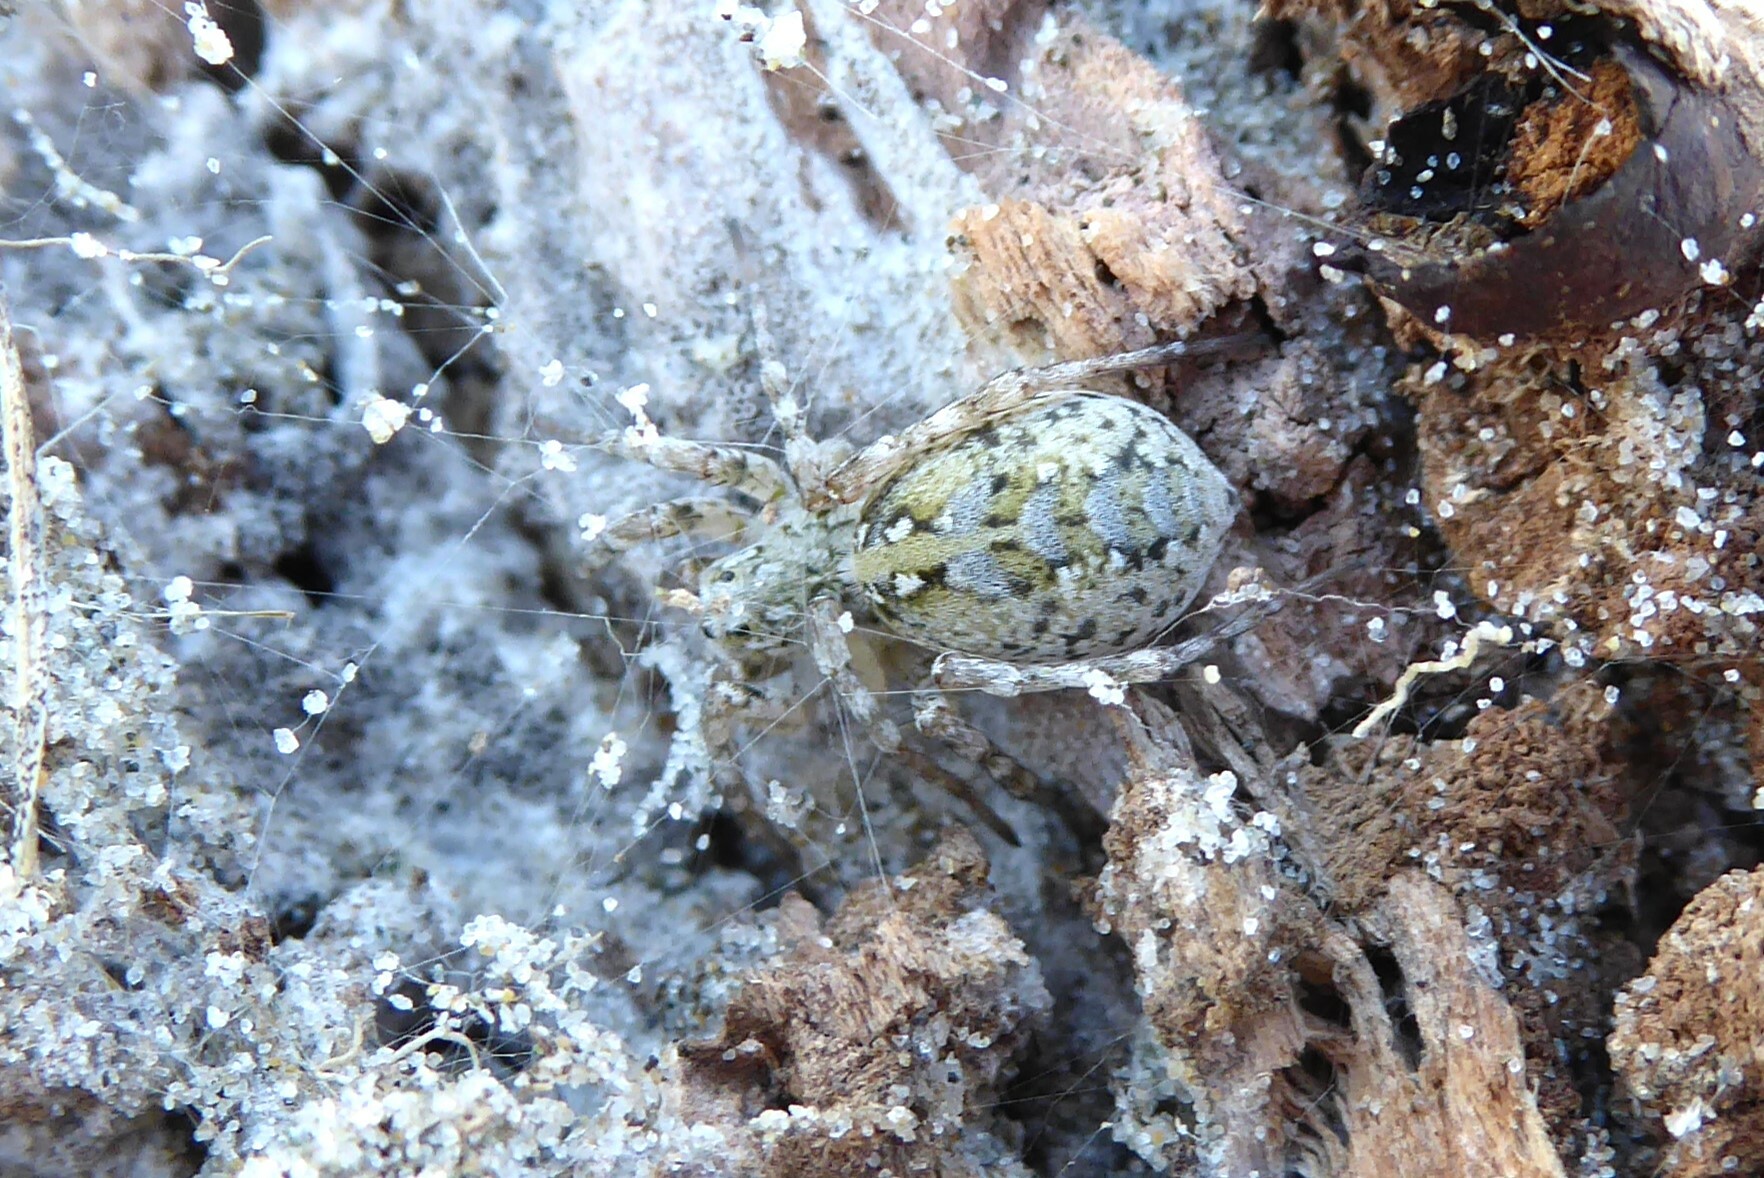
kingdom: Animalia
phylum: Arthropoda
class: Arachnida
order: Araneae
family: Lycosidae
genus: Anoteropsis
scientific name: Anoteropsis forsteri
